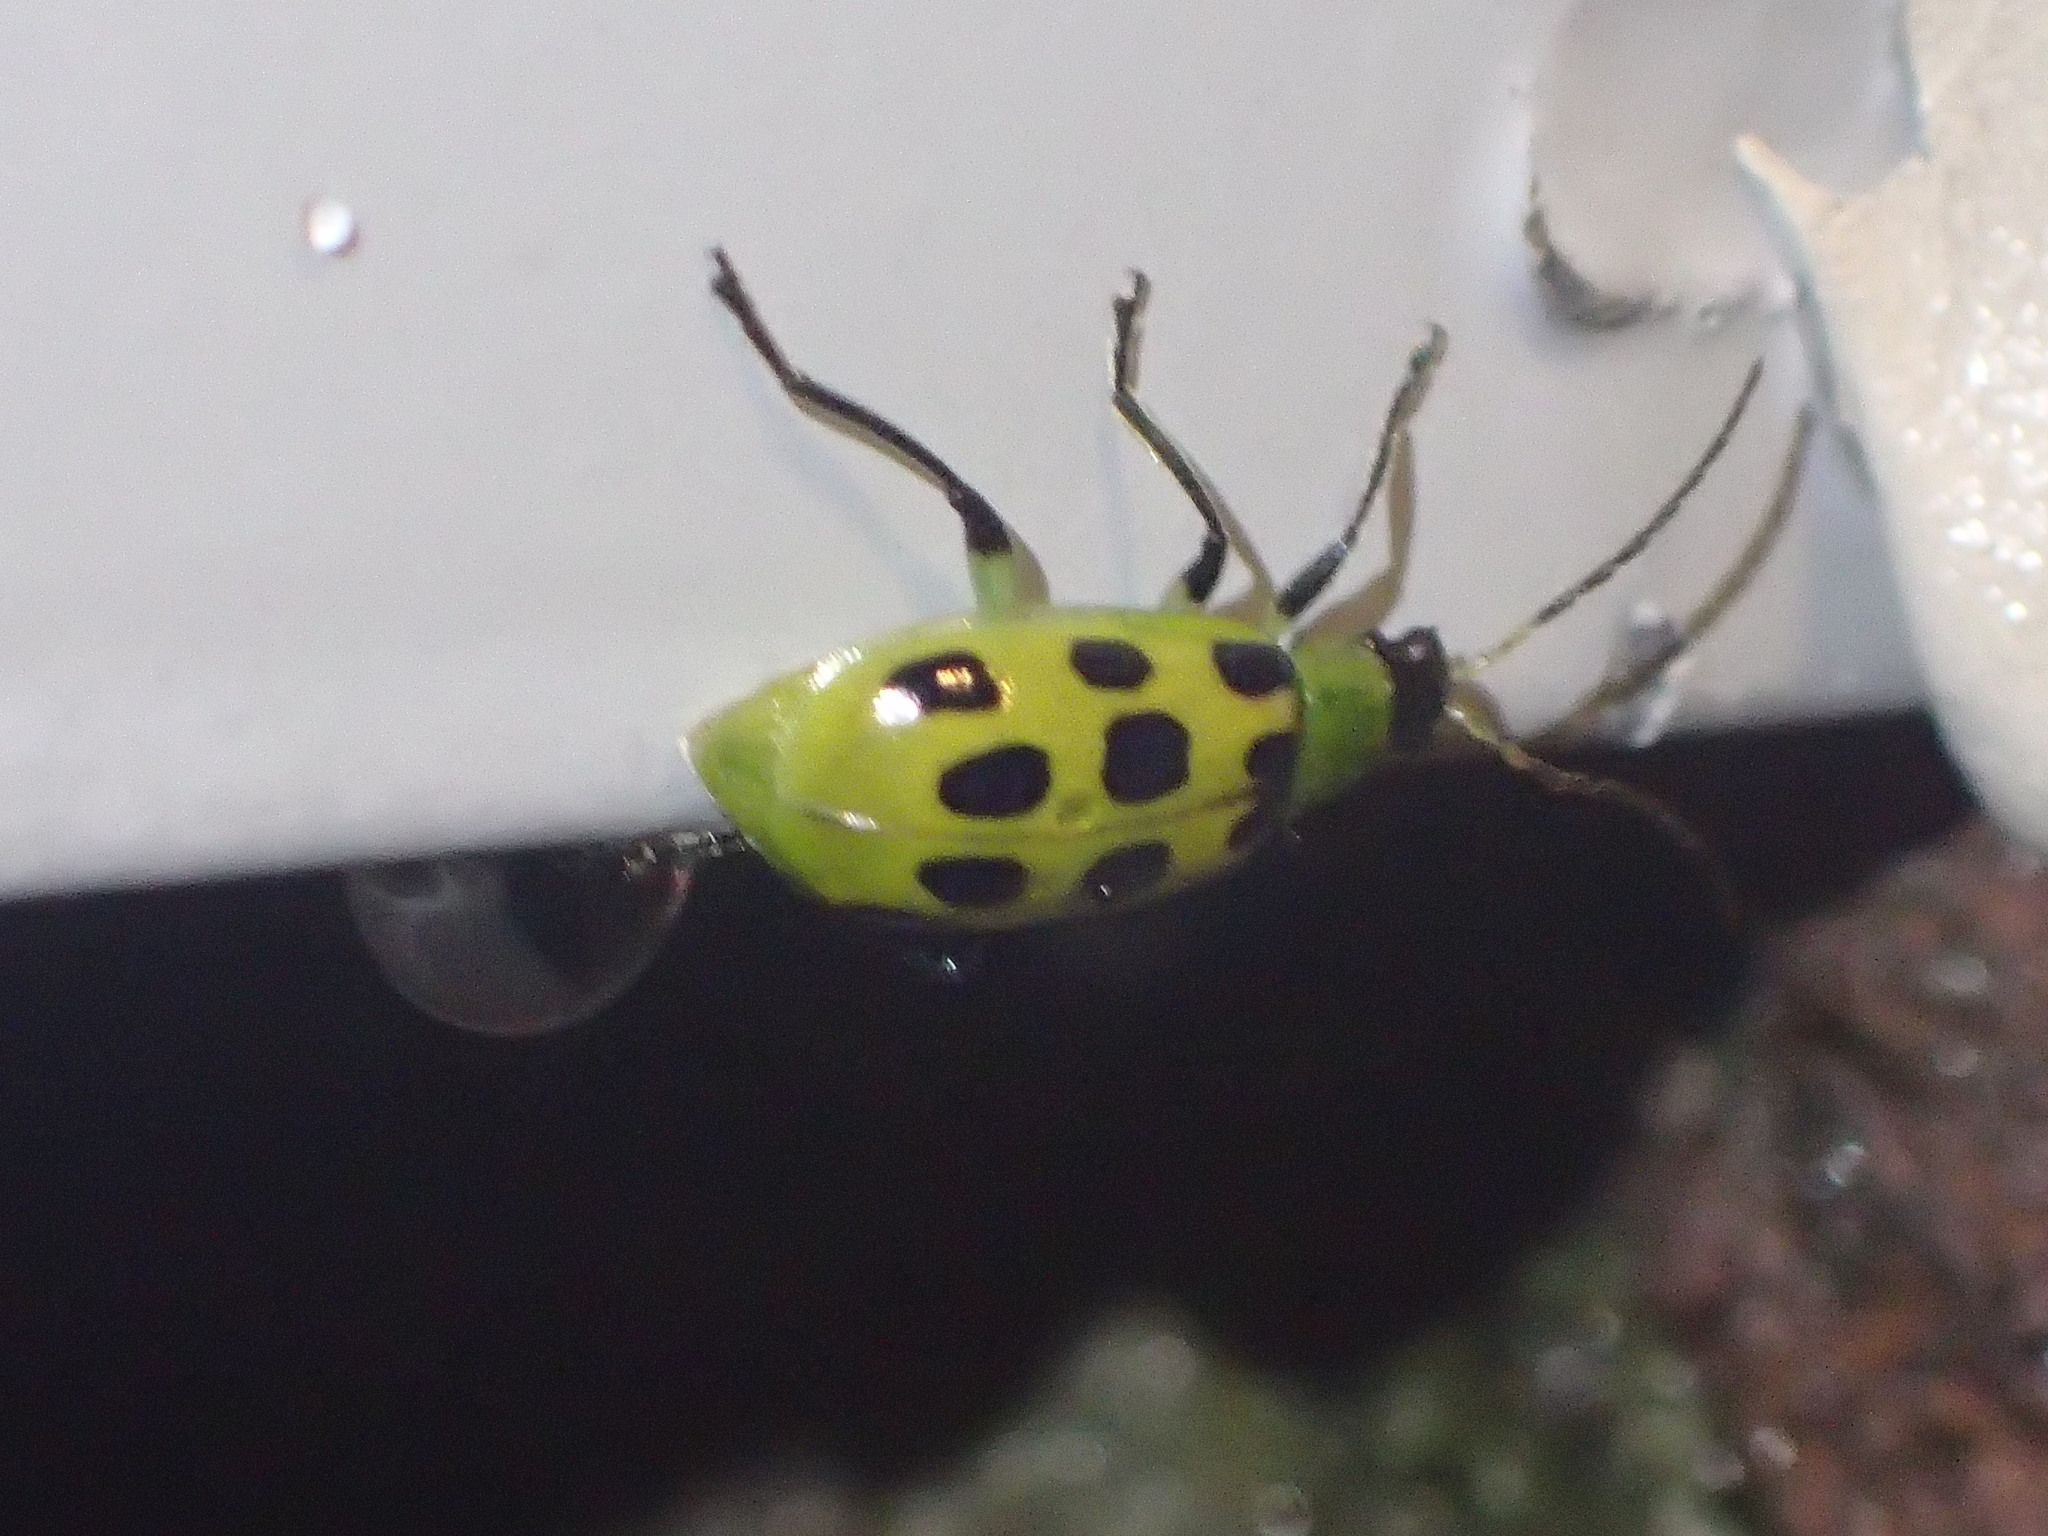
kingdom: Animalia
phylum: Arthropoda
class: Insecta
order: Coleoptera
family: Chrysomelidae
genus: Diabrotica
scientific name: Diabrotica undecimpunctata
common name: Spotted cucumber beetle
